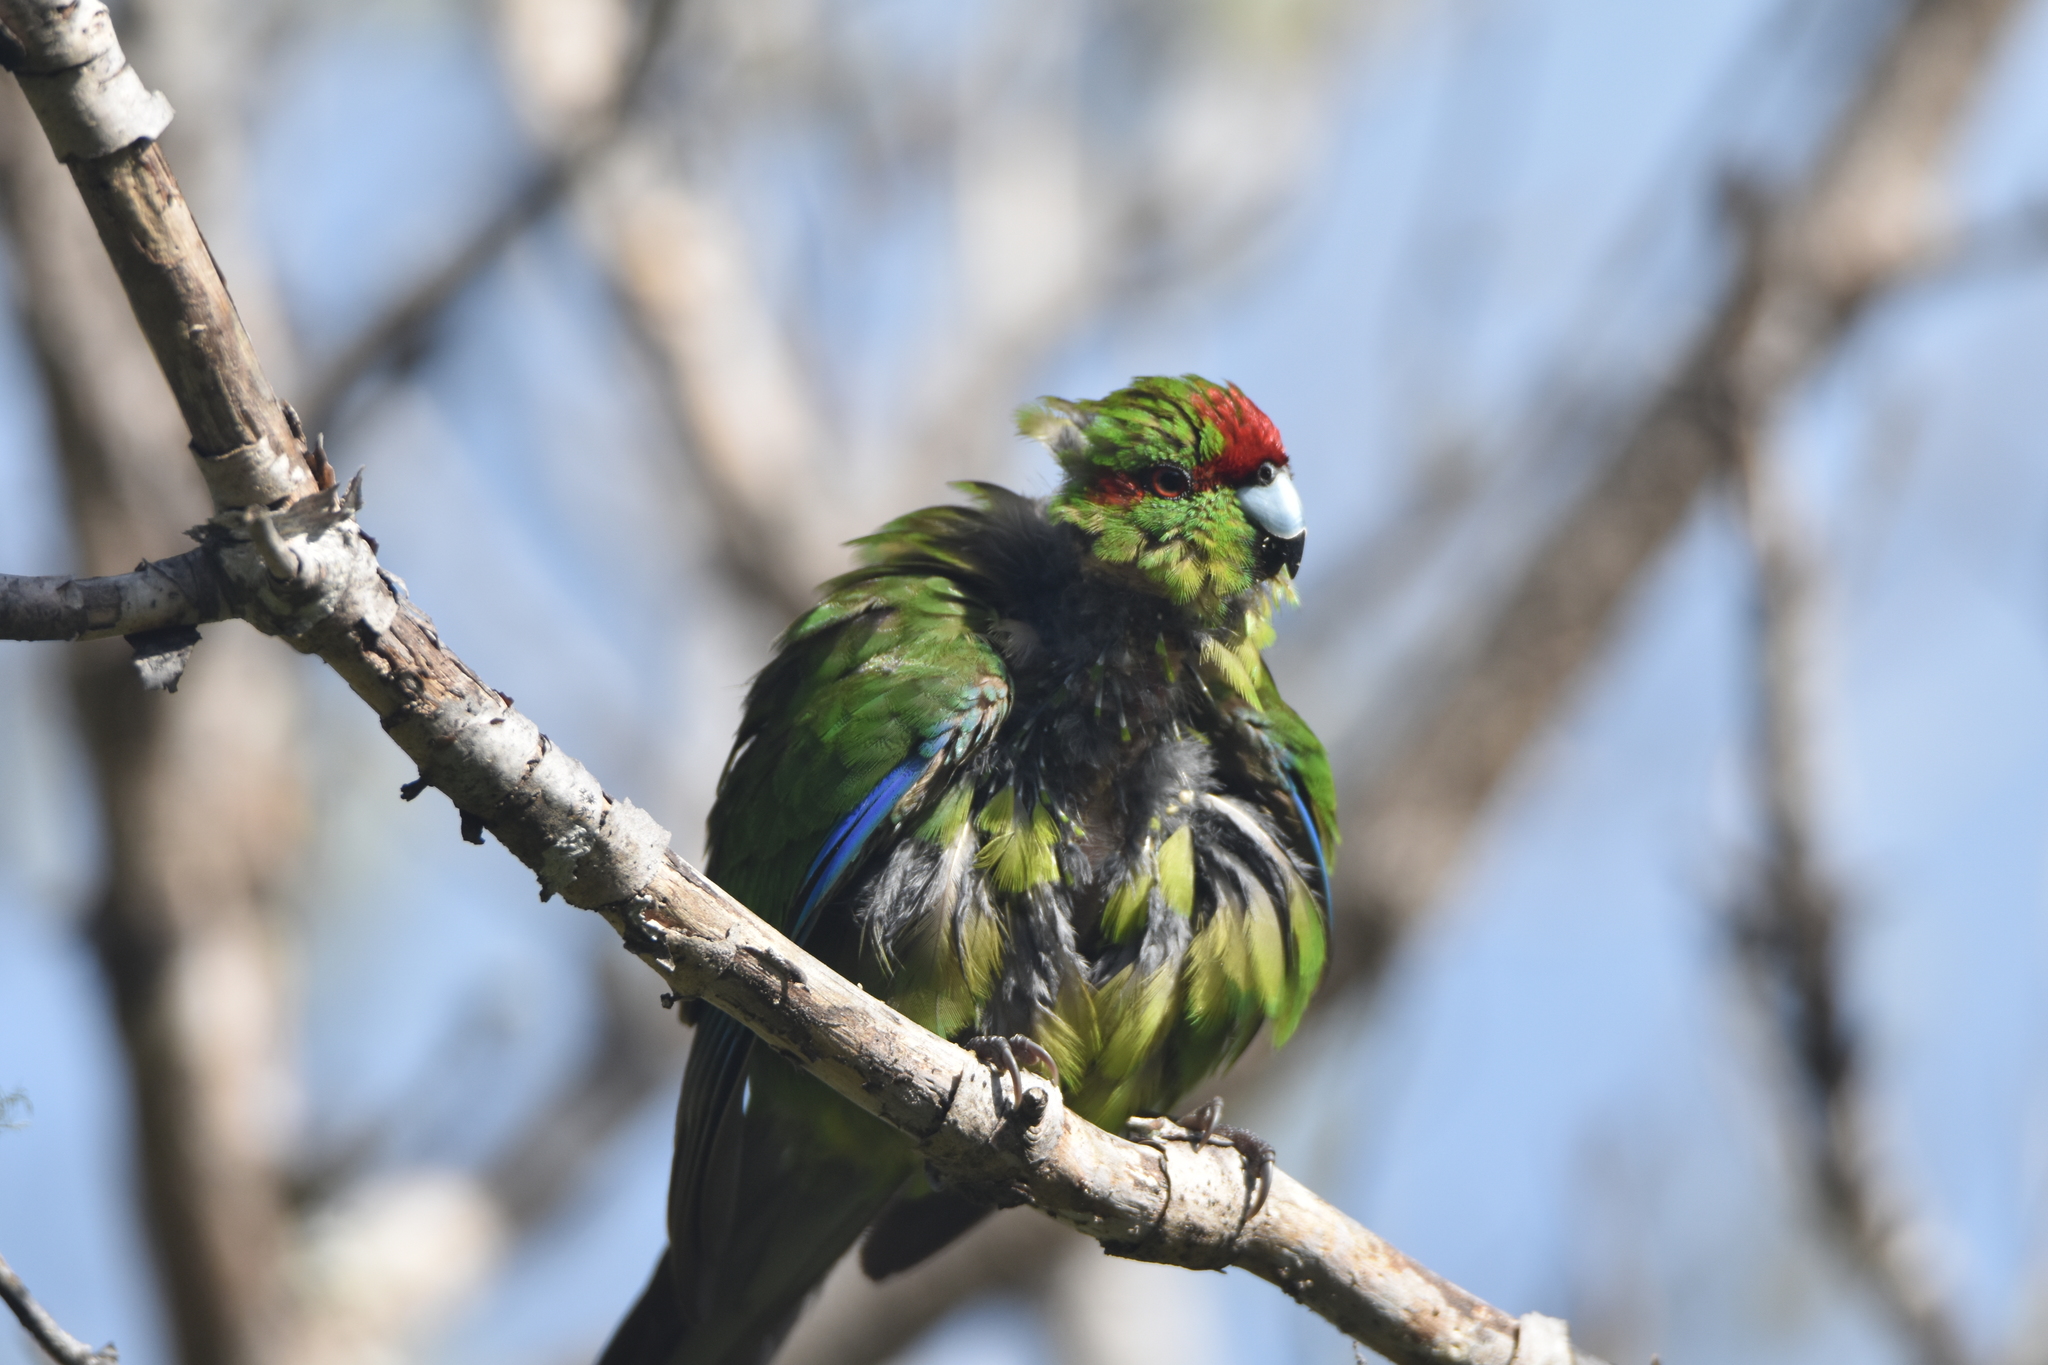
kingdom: Animalia
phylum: Chordata
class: Aves
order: Psittaciformes
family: Psittacidae
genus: Cyanoramphus
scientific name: Cyanoramphus novaezelandiae
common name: Red-fronted parakeet
